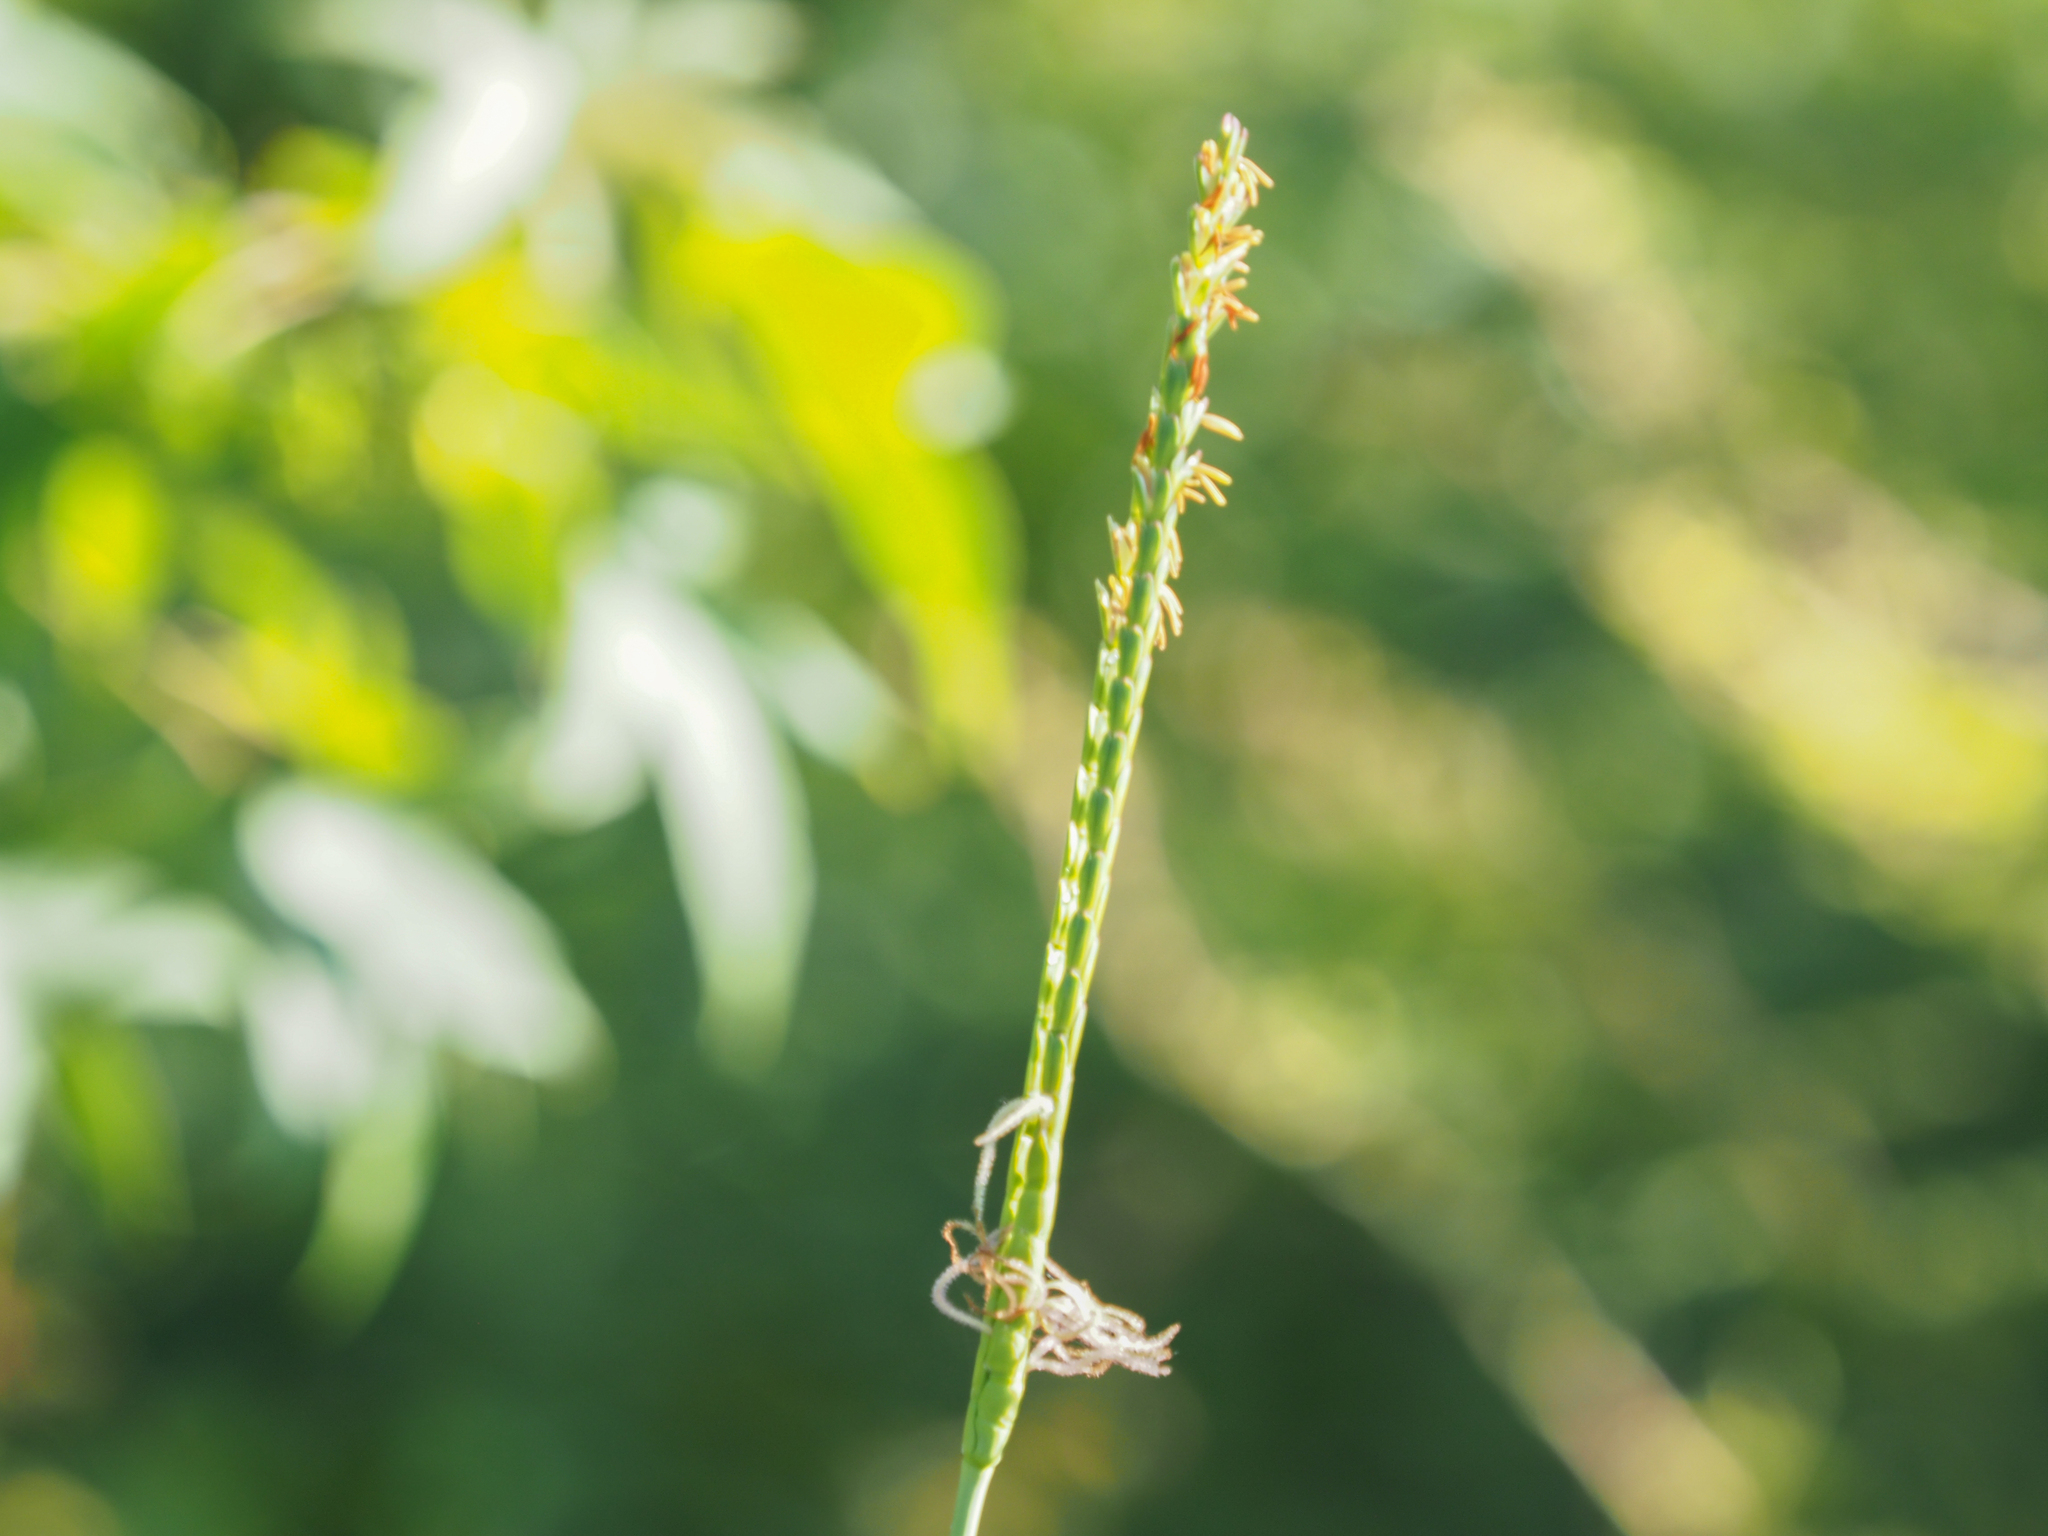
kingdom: Plantae
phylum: Tracheophyta
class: Liliopsida
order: Poales
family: Poaceae
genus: Tripsacum
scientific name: Tripsacum dactyloides
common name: Buffalo-grass
